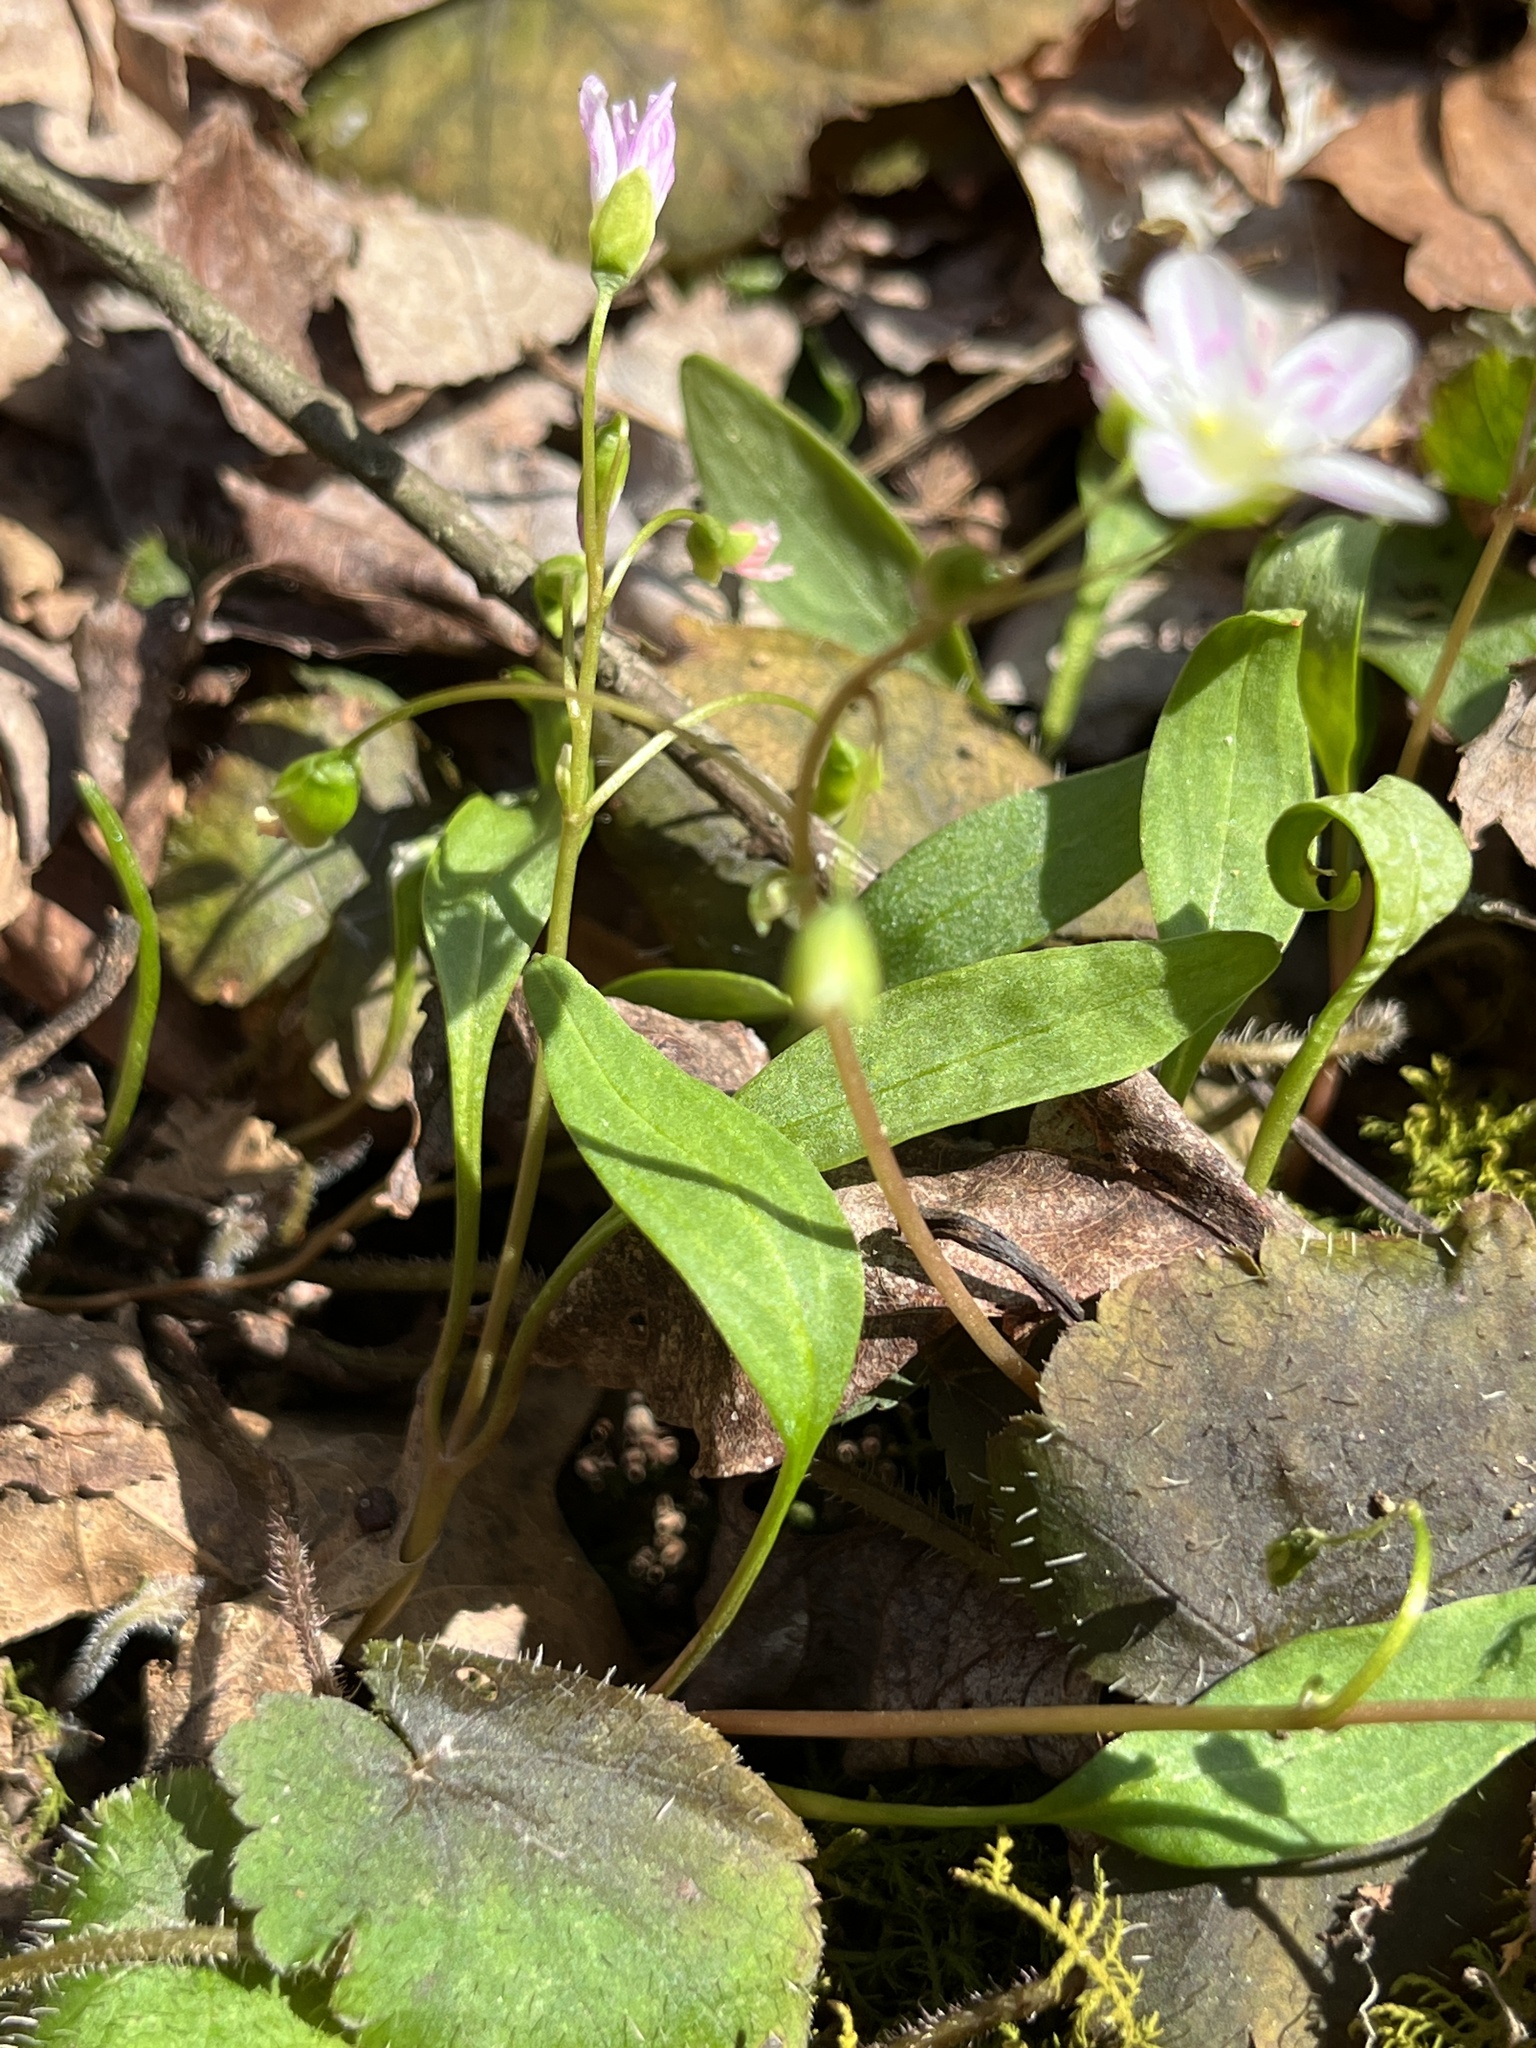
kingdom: Plantae
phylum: Tracheophyta
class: Magnoliopsida
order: Caryophyllales
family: Montiaceae
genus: Claytonia
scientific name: Claytonia caroliniana
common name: Carolina spring beauty
